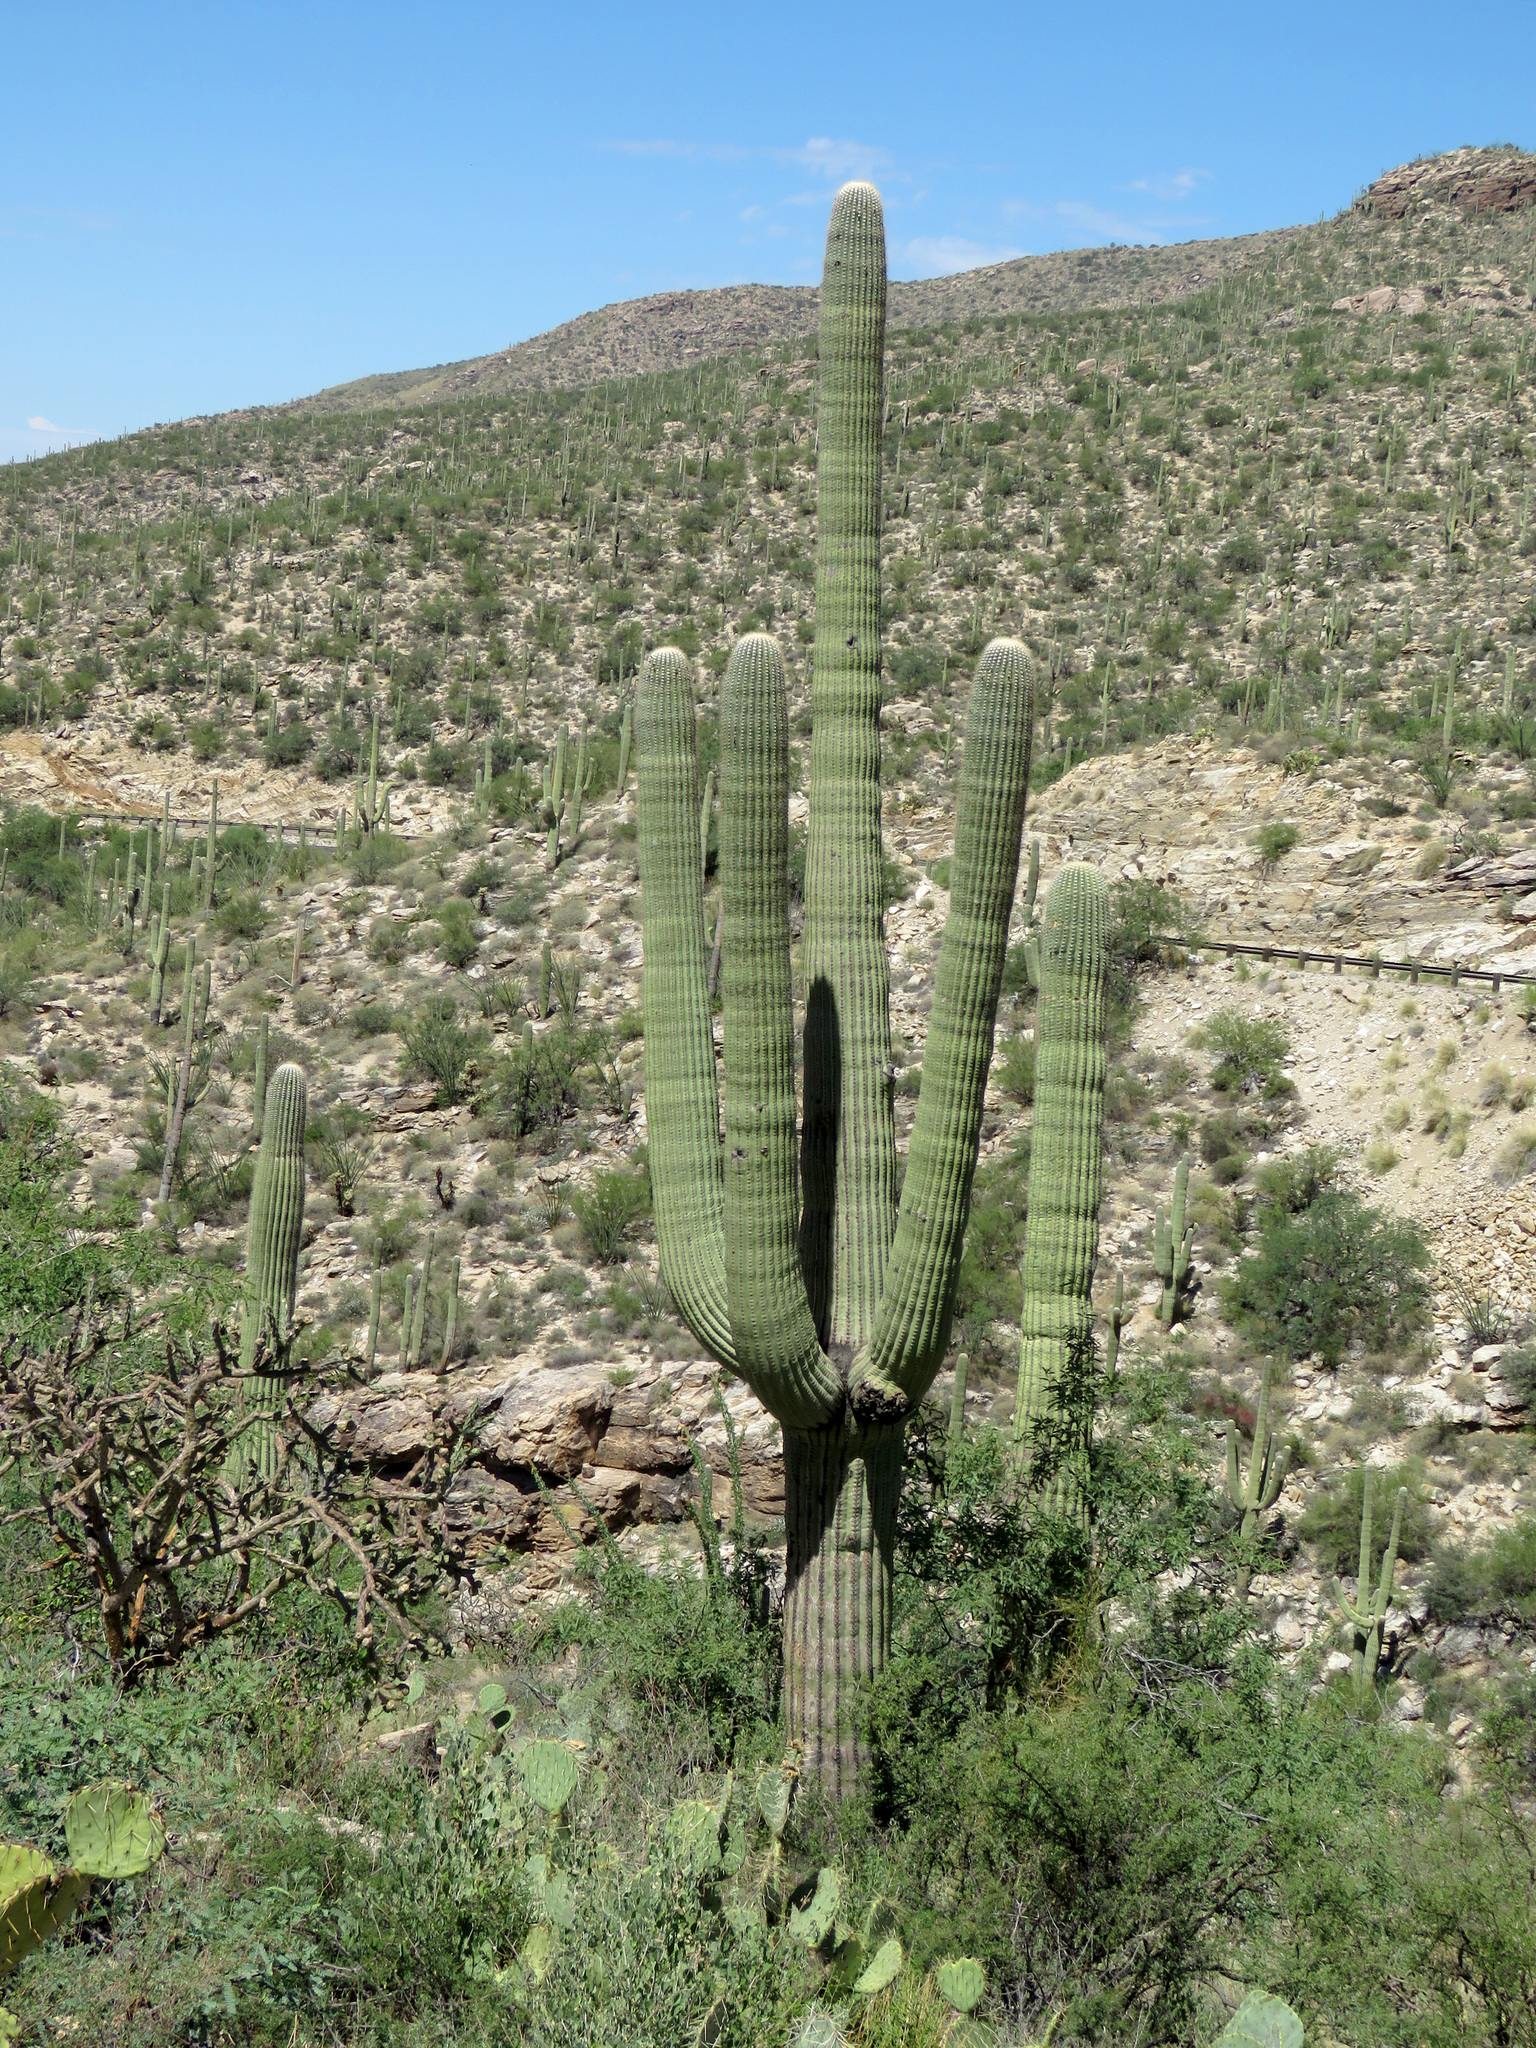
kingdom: Plantae
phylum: Tracheophyta
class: Magnoliopsida
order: Caryophyllales
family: Cactaceae
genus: Carnegiea
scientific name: Carnegiea gigantea
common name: Saguaro
